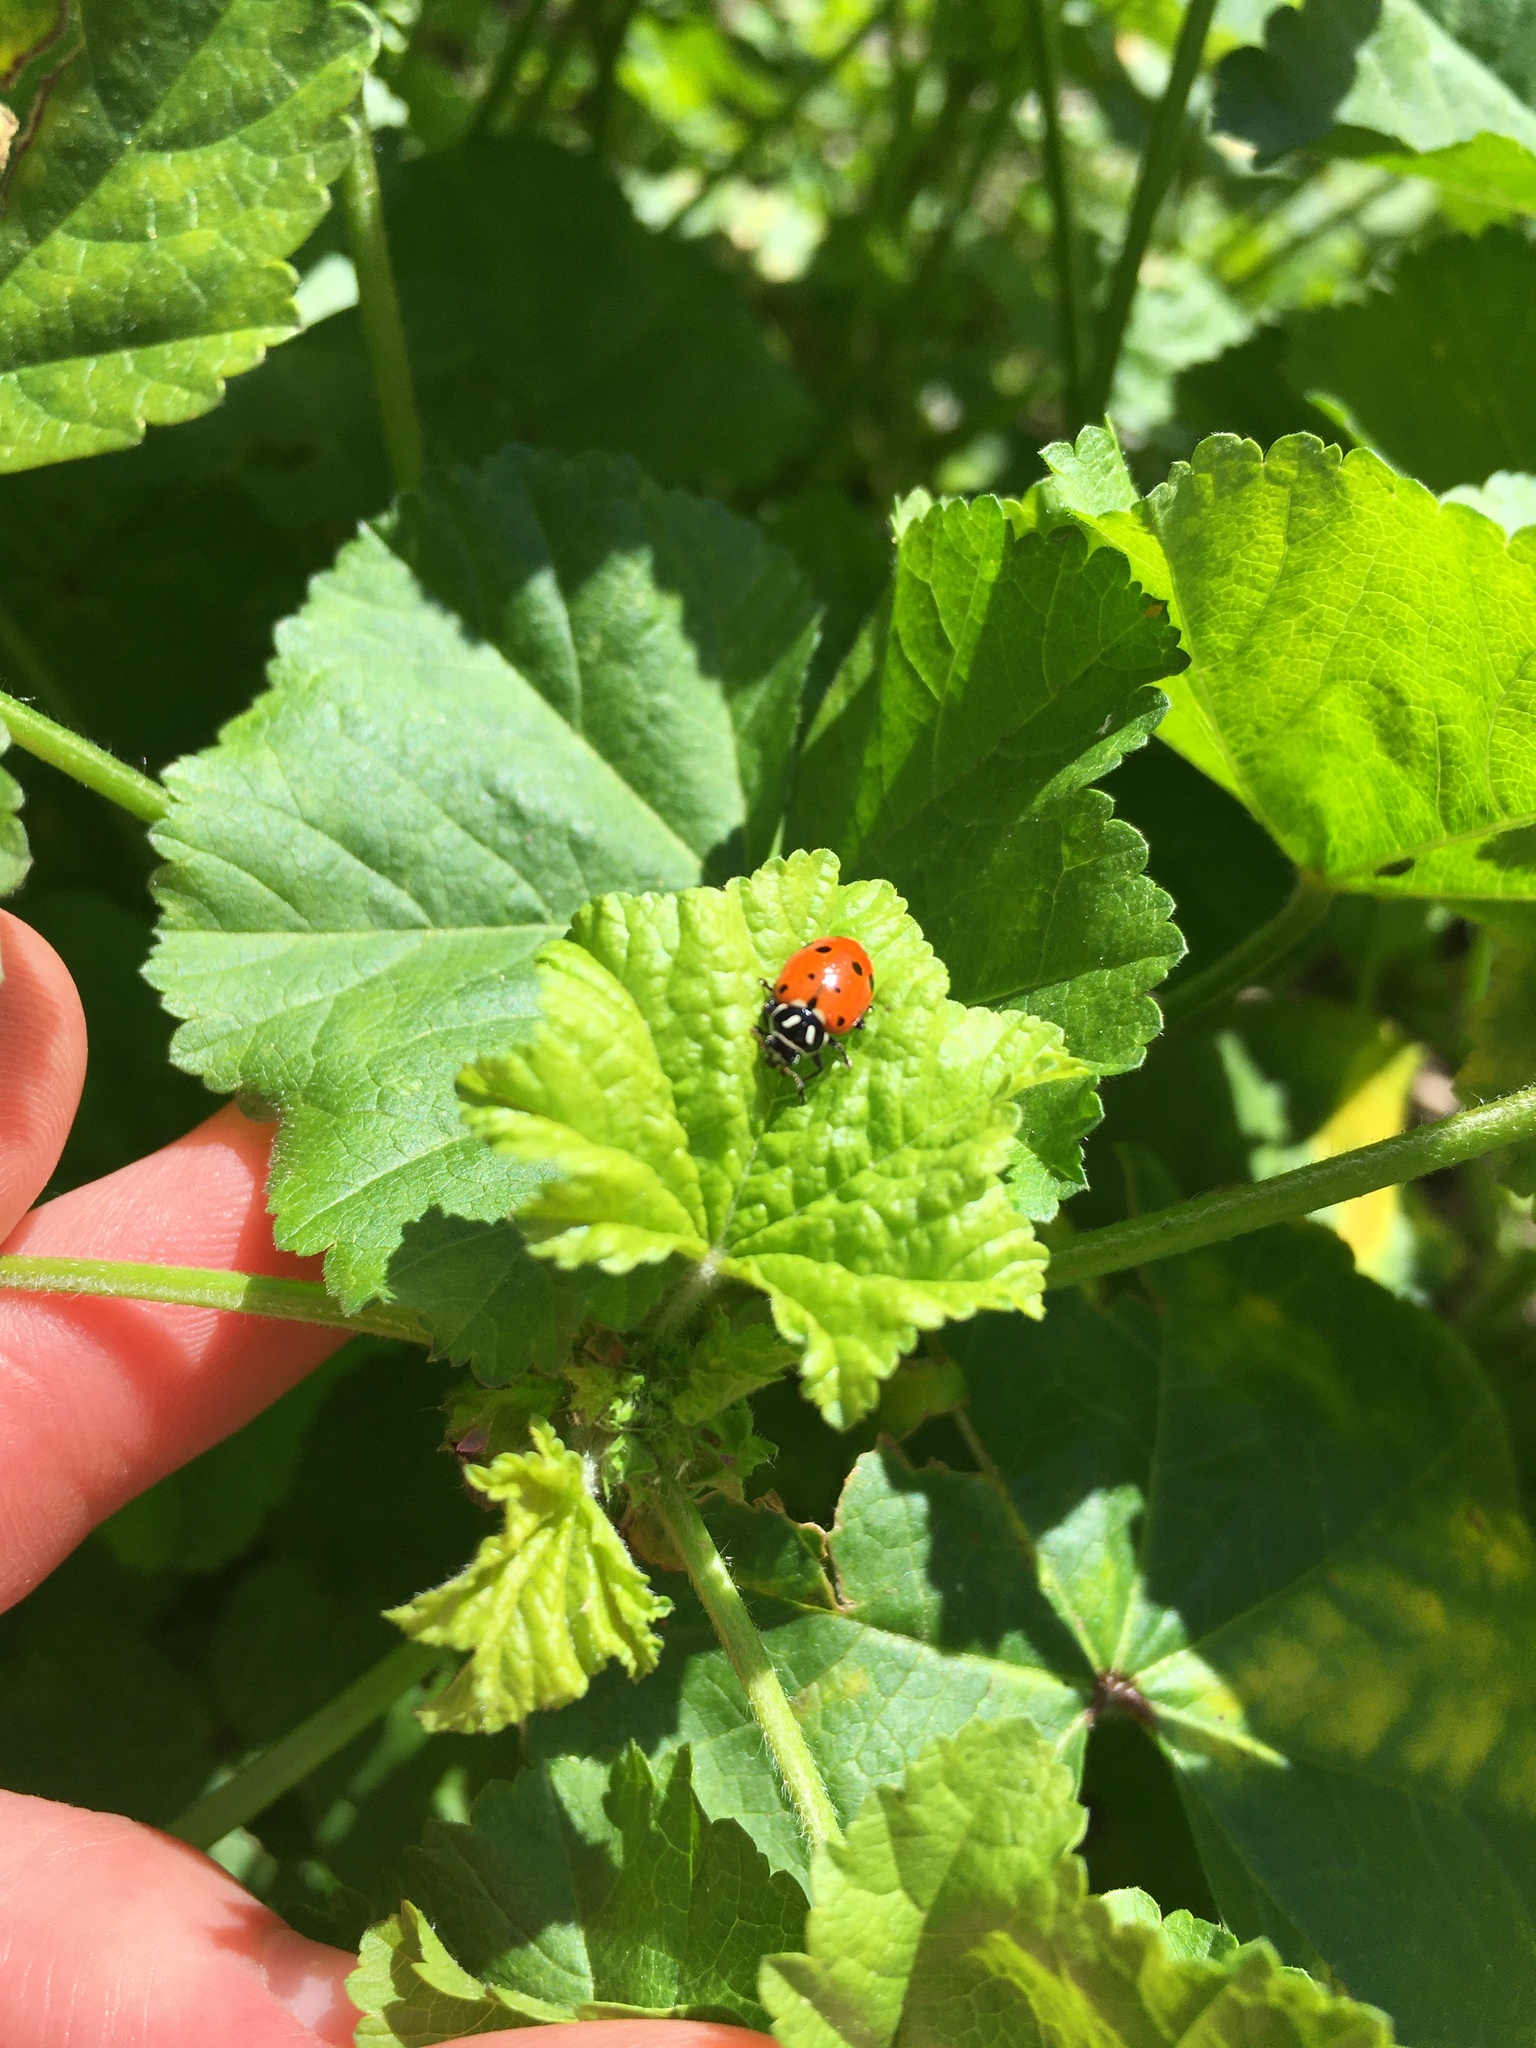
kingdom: Animalia
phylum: Arthropoda
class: Insecta
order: Coleoptera
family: Coccinellidae
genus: Hippodamia
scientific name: Hippodamia convergens
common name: Convergent lady beetle
